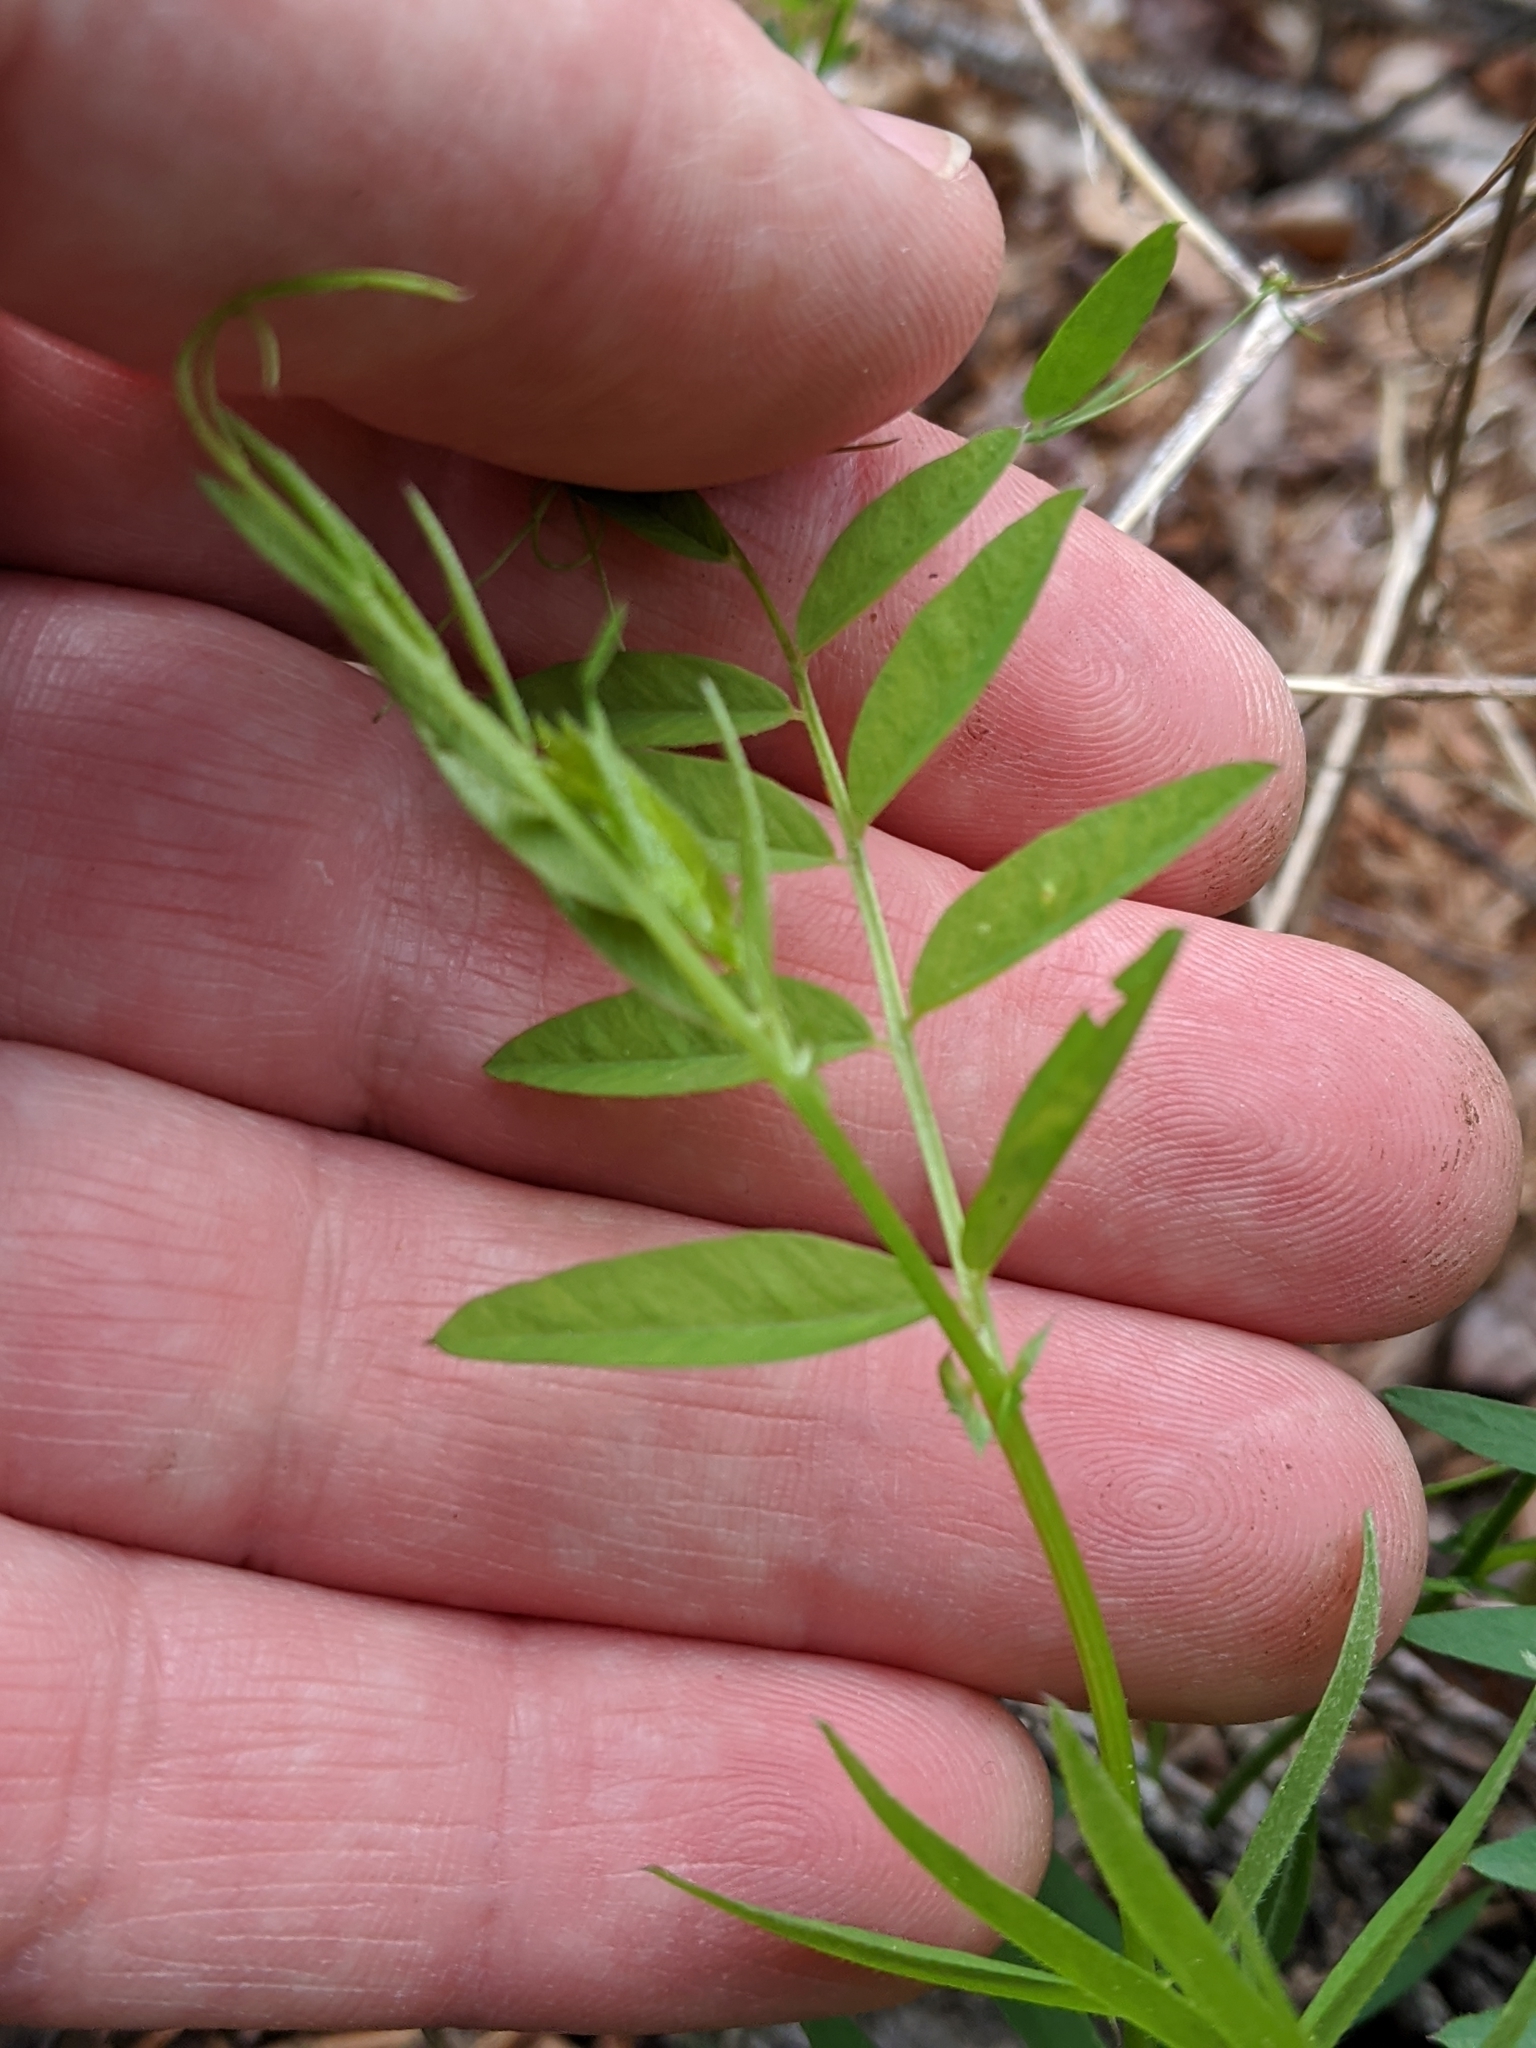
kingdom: Plantae
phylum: Tracheophyta
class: Magnoliopsida
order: Fabales
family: Fabaceae
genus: Vicia
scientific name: Vicia americana
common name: American vetch
